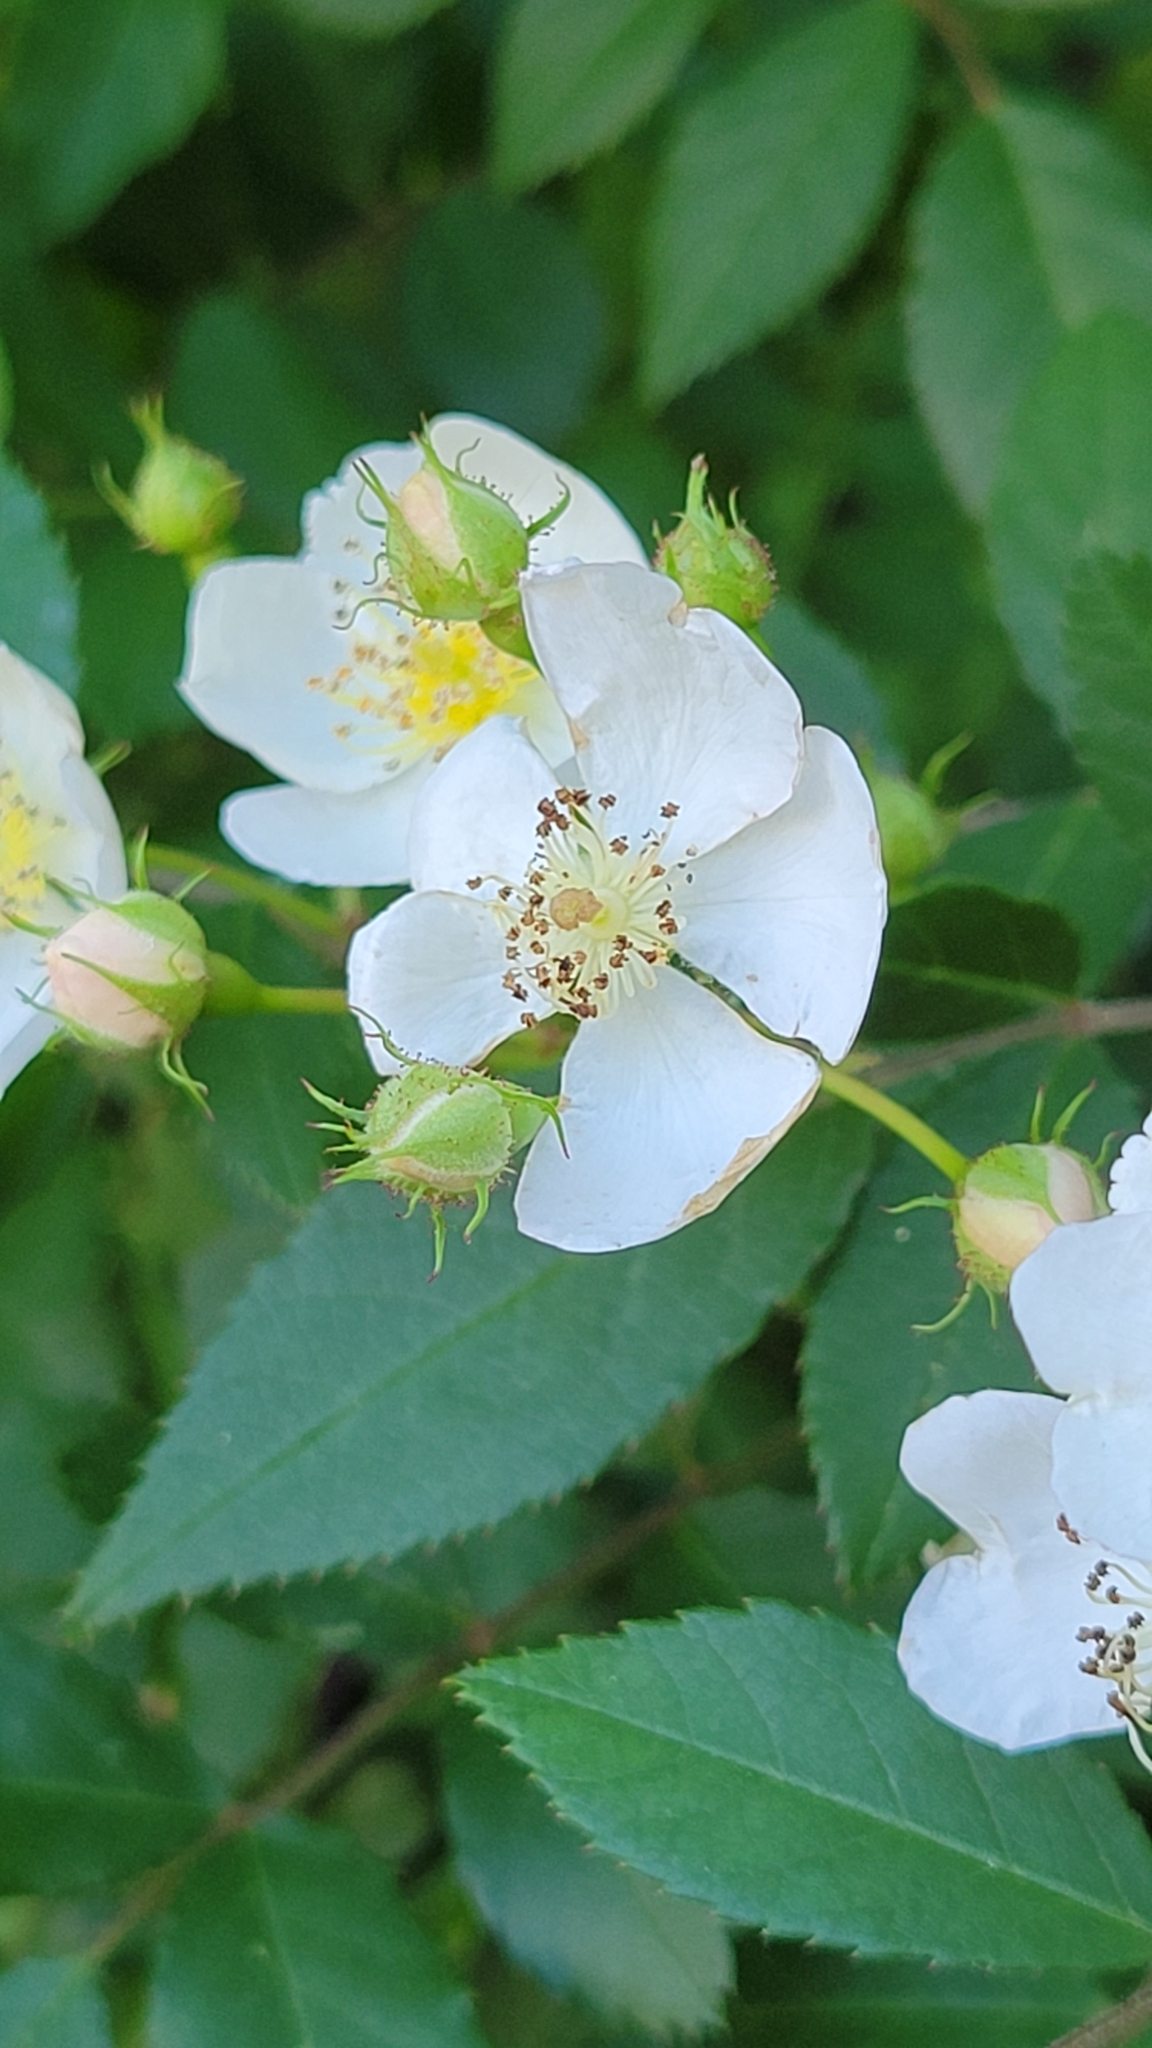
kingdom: Plantae
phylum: Tracheophyta
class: Magnoliopsida
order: Rosales
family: Rosaceae
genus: Rosa
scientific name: Rosa multiflora
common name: Multiflora rose
